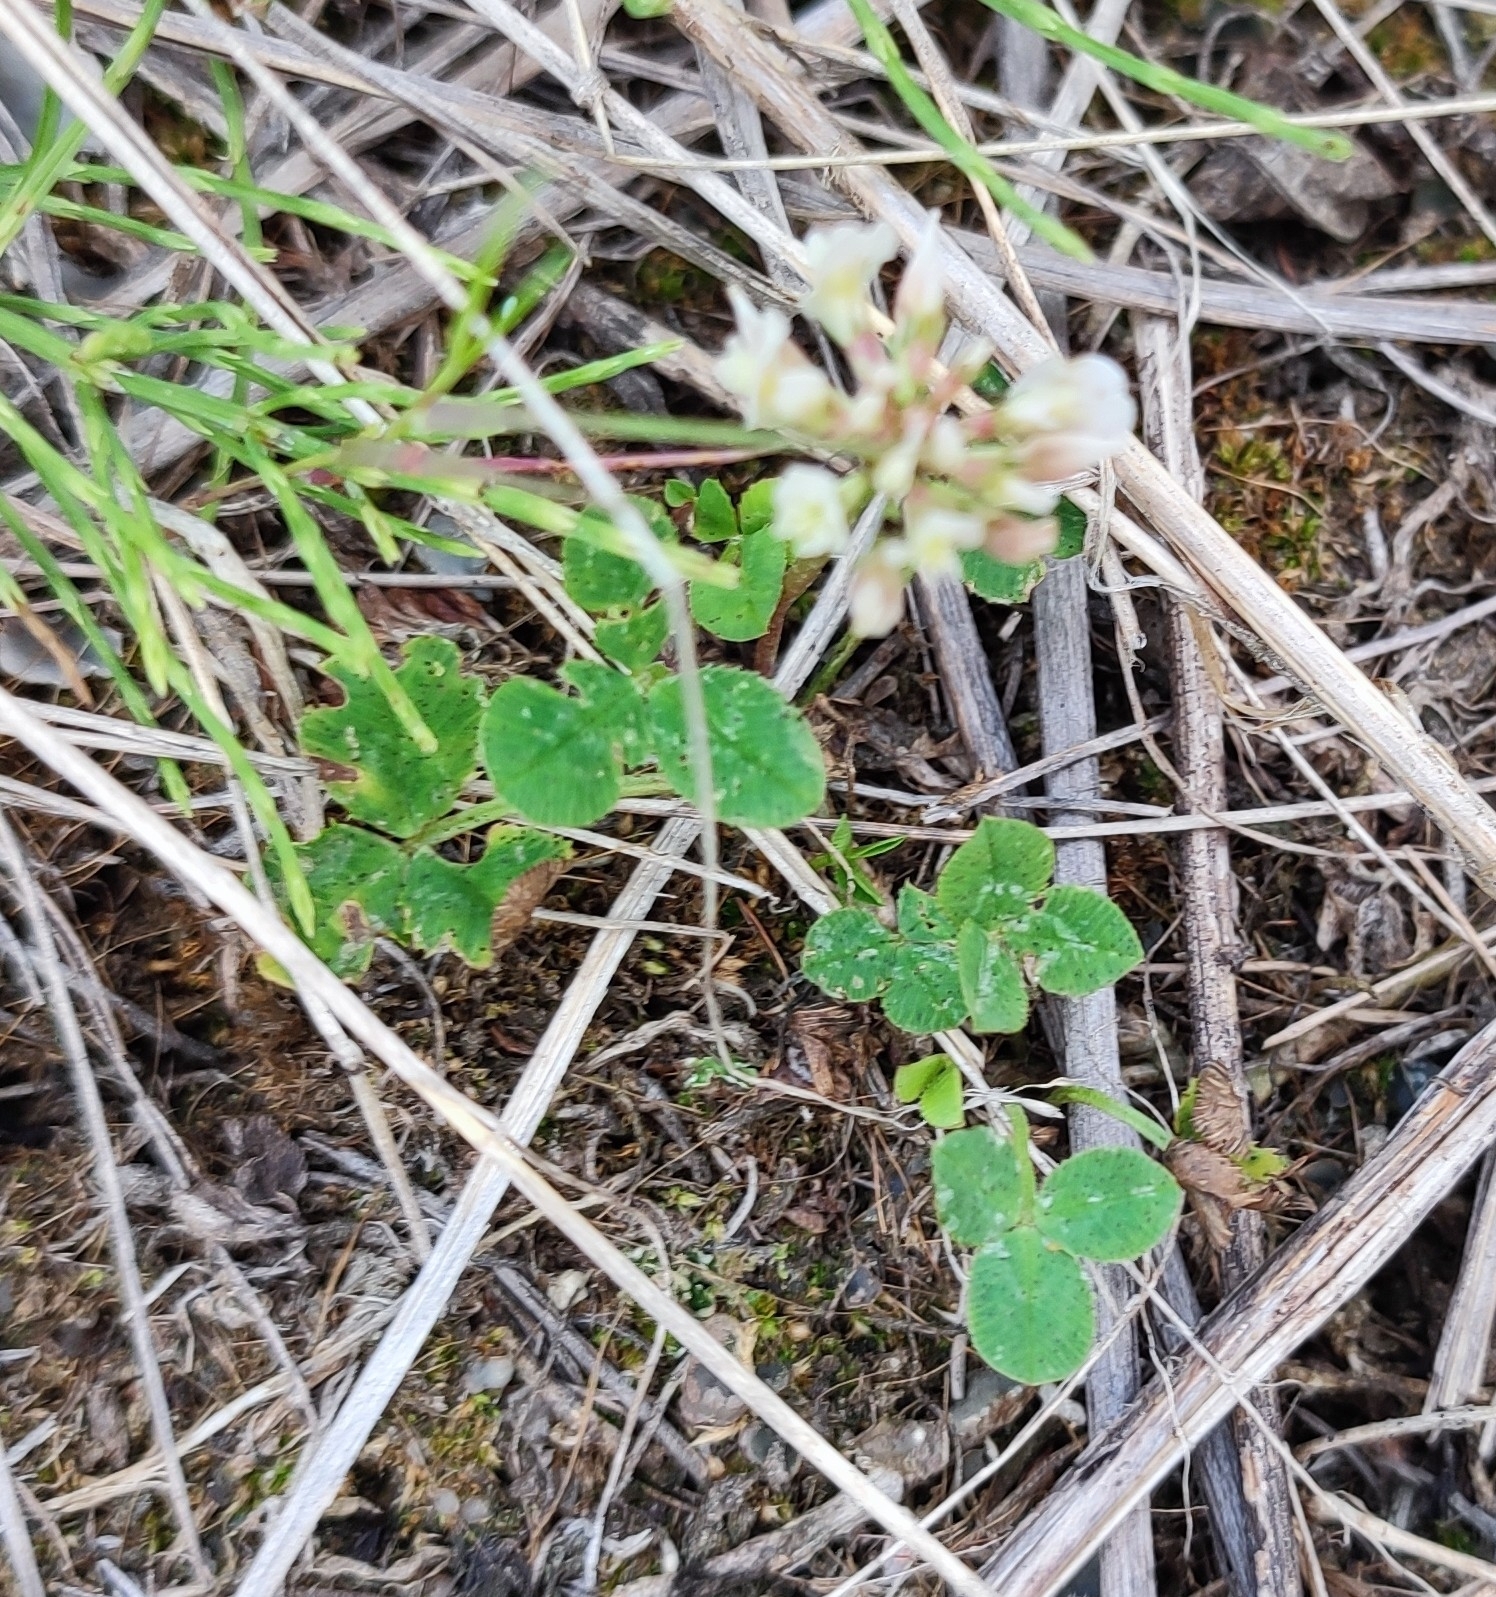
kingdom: Plantae
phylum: Tracheophyta
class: Magnoliopsida
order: Fabales
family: Fabaceae
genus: Trifolium
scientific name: Trifolium repens
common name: White clover
